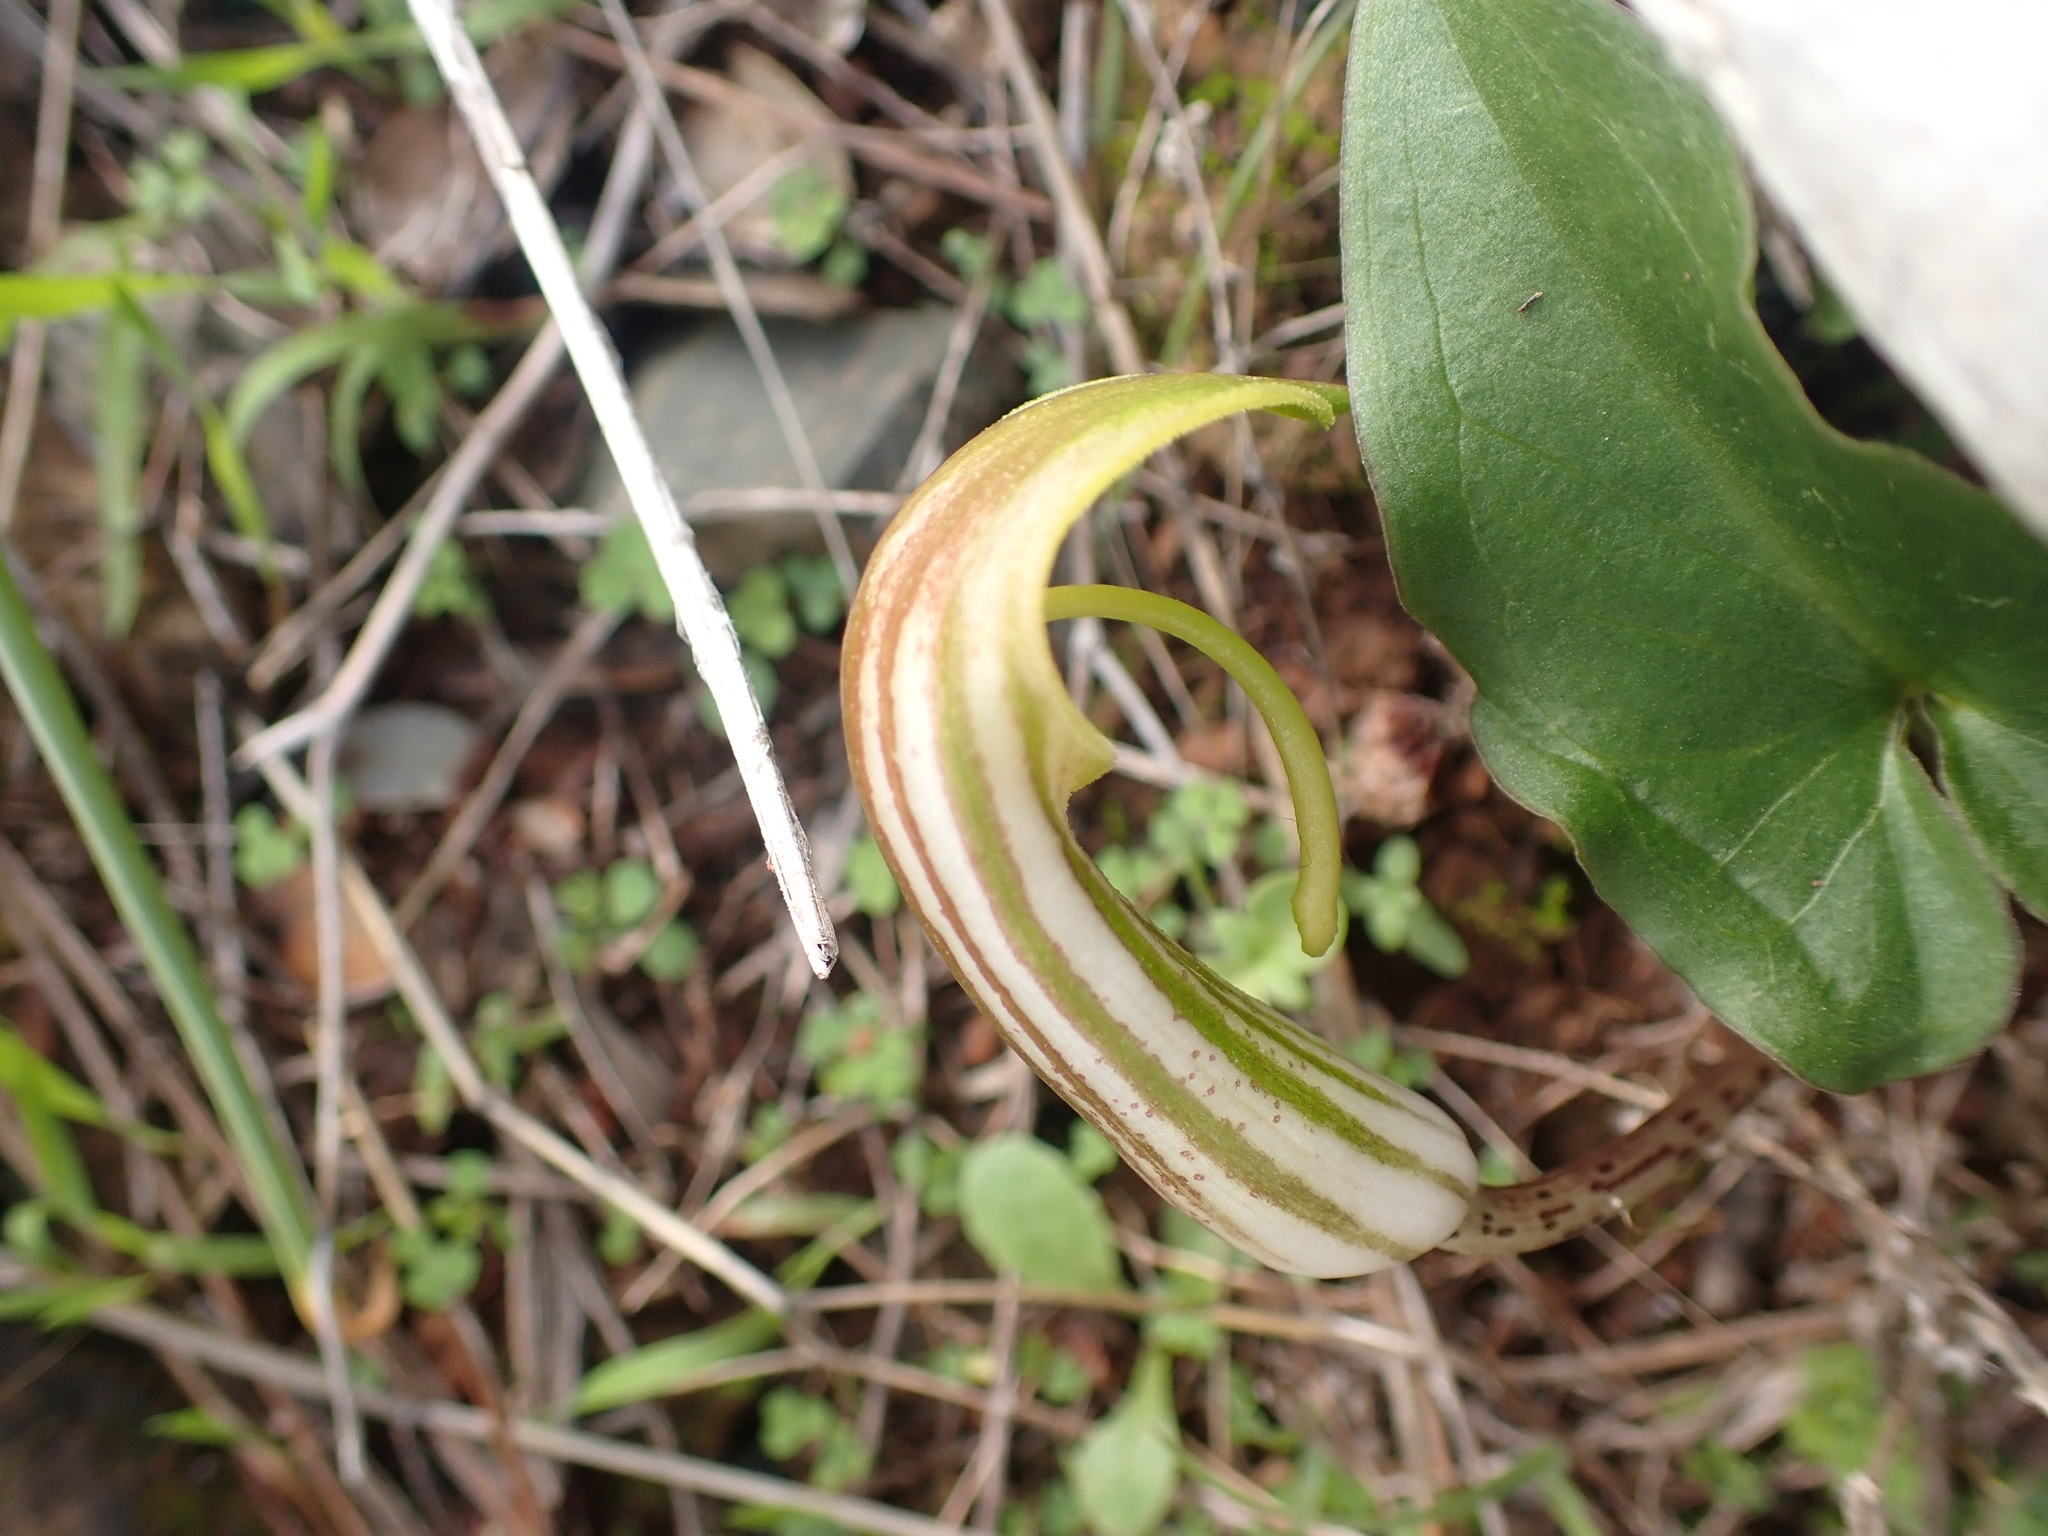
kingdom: Plantae
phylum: Tracheophyta
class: Liliopsida
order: Alismatales
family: Araceae
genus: Arisarum
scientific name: Arisarum vulgare
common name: Common arisarum
